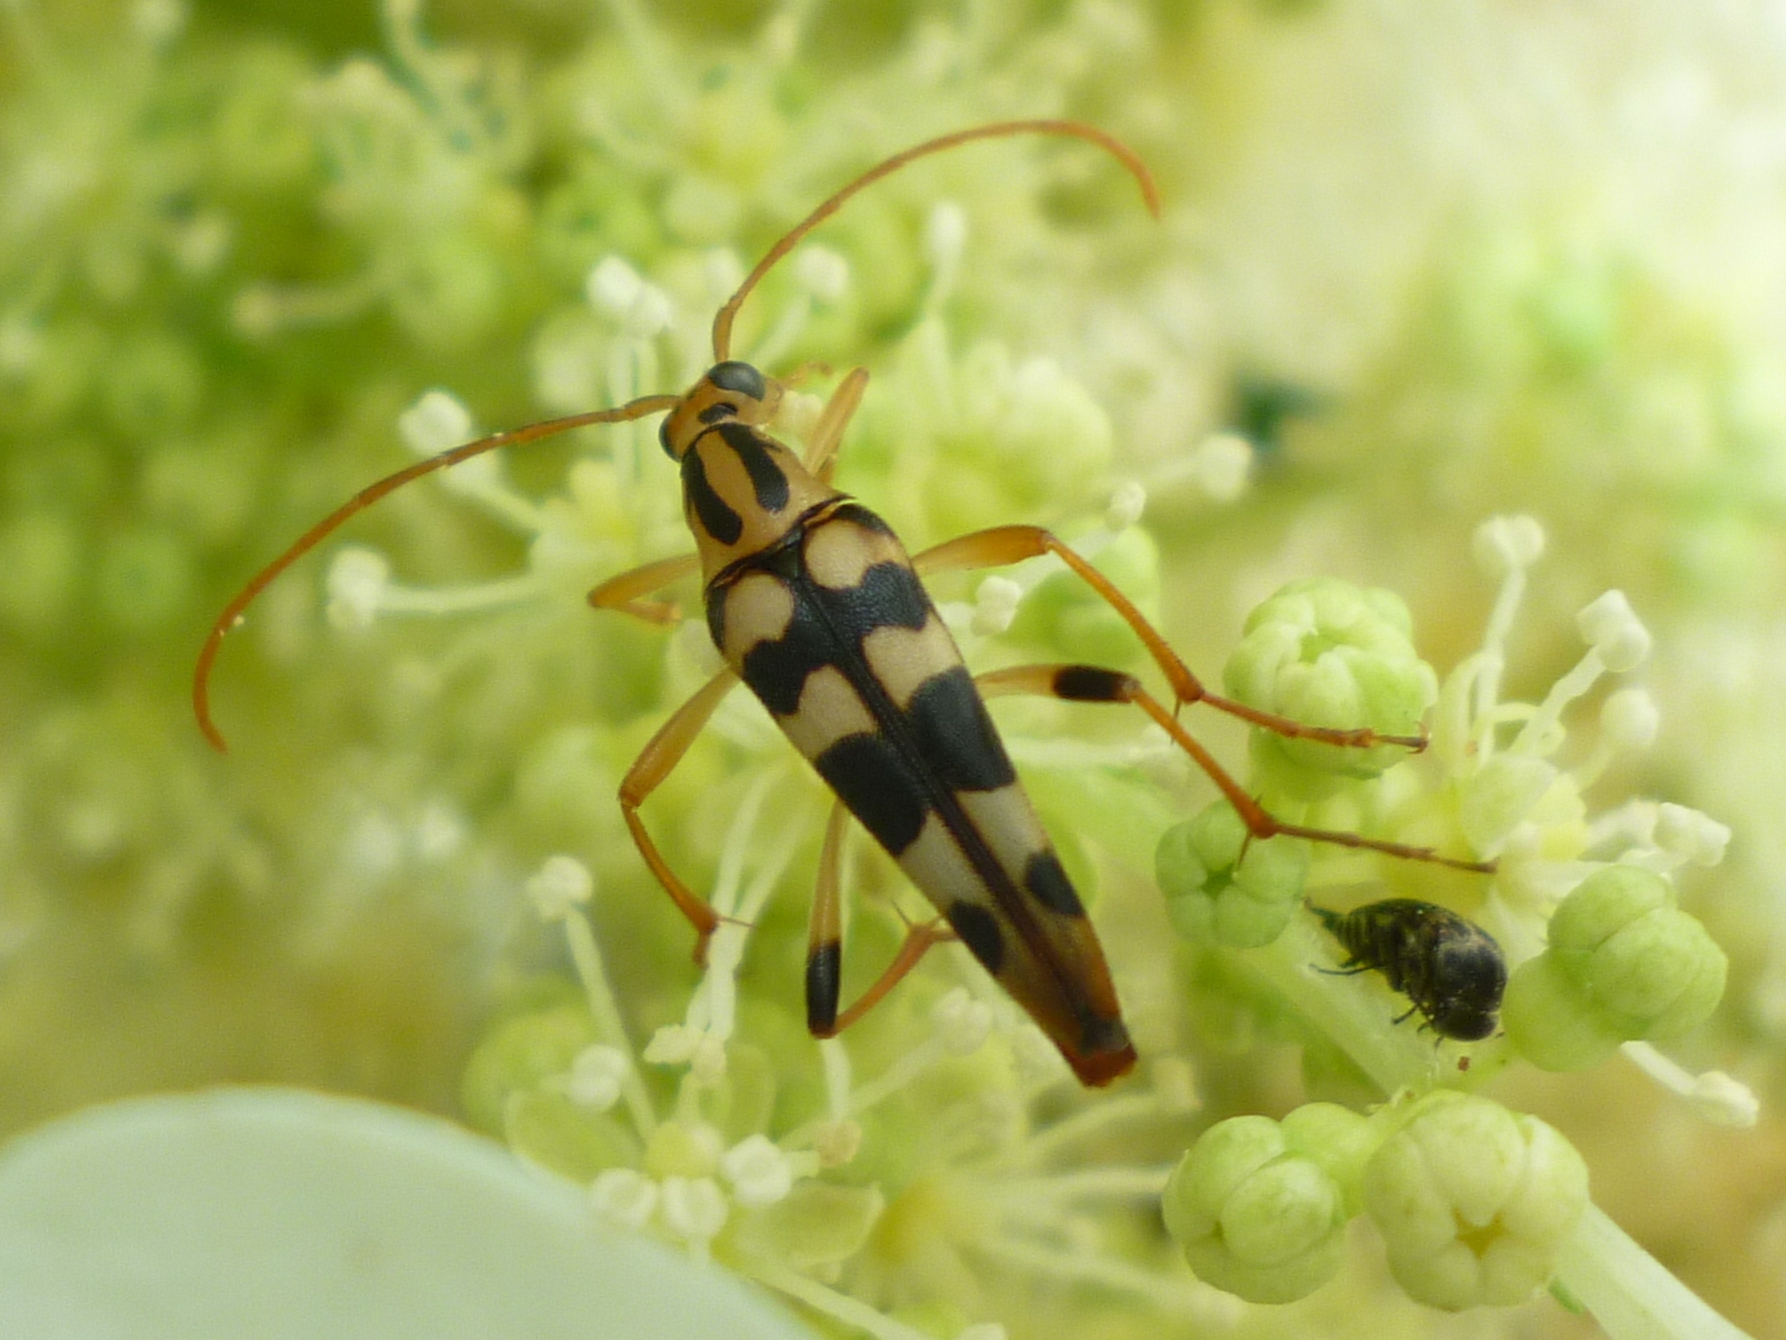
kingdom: Animalia
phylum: Arthropoda
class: Insecta
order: Coleoptera
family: Cerambycidae
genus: Strangalia
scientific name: Strangalia luteicornis
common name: Yellow-horned flower longhorn beetle
